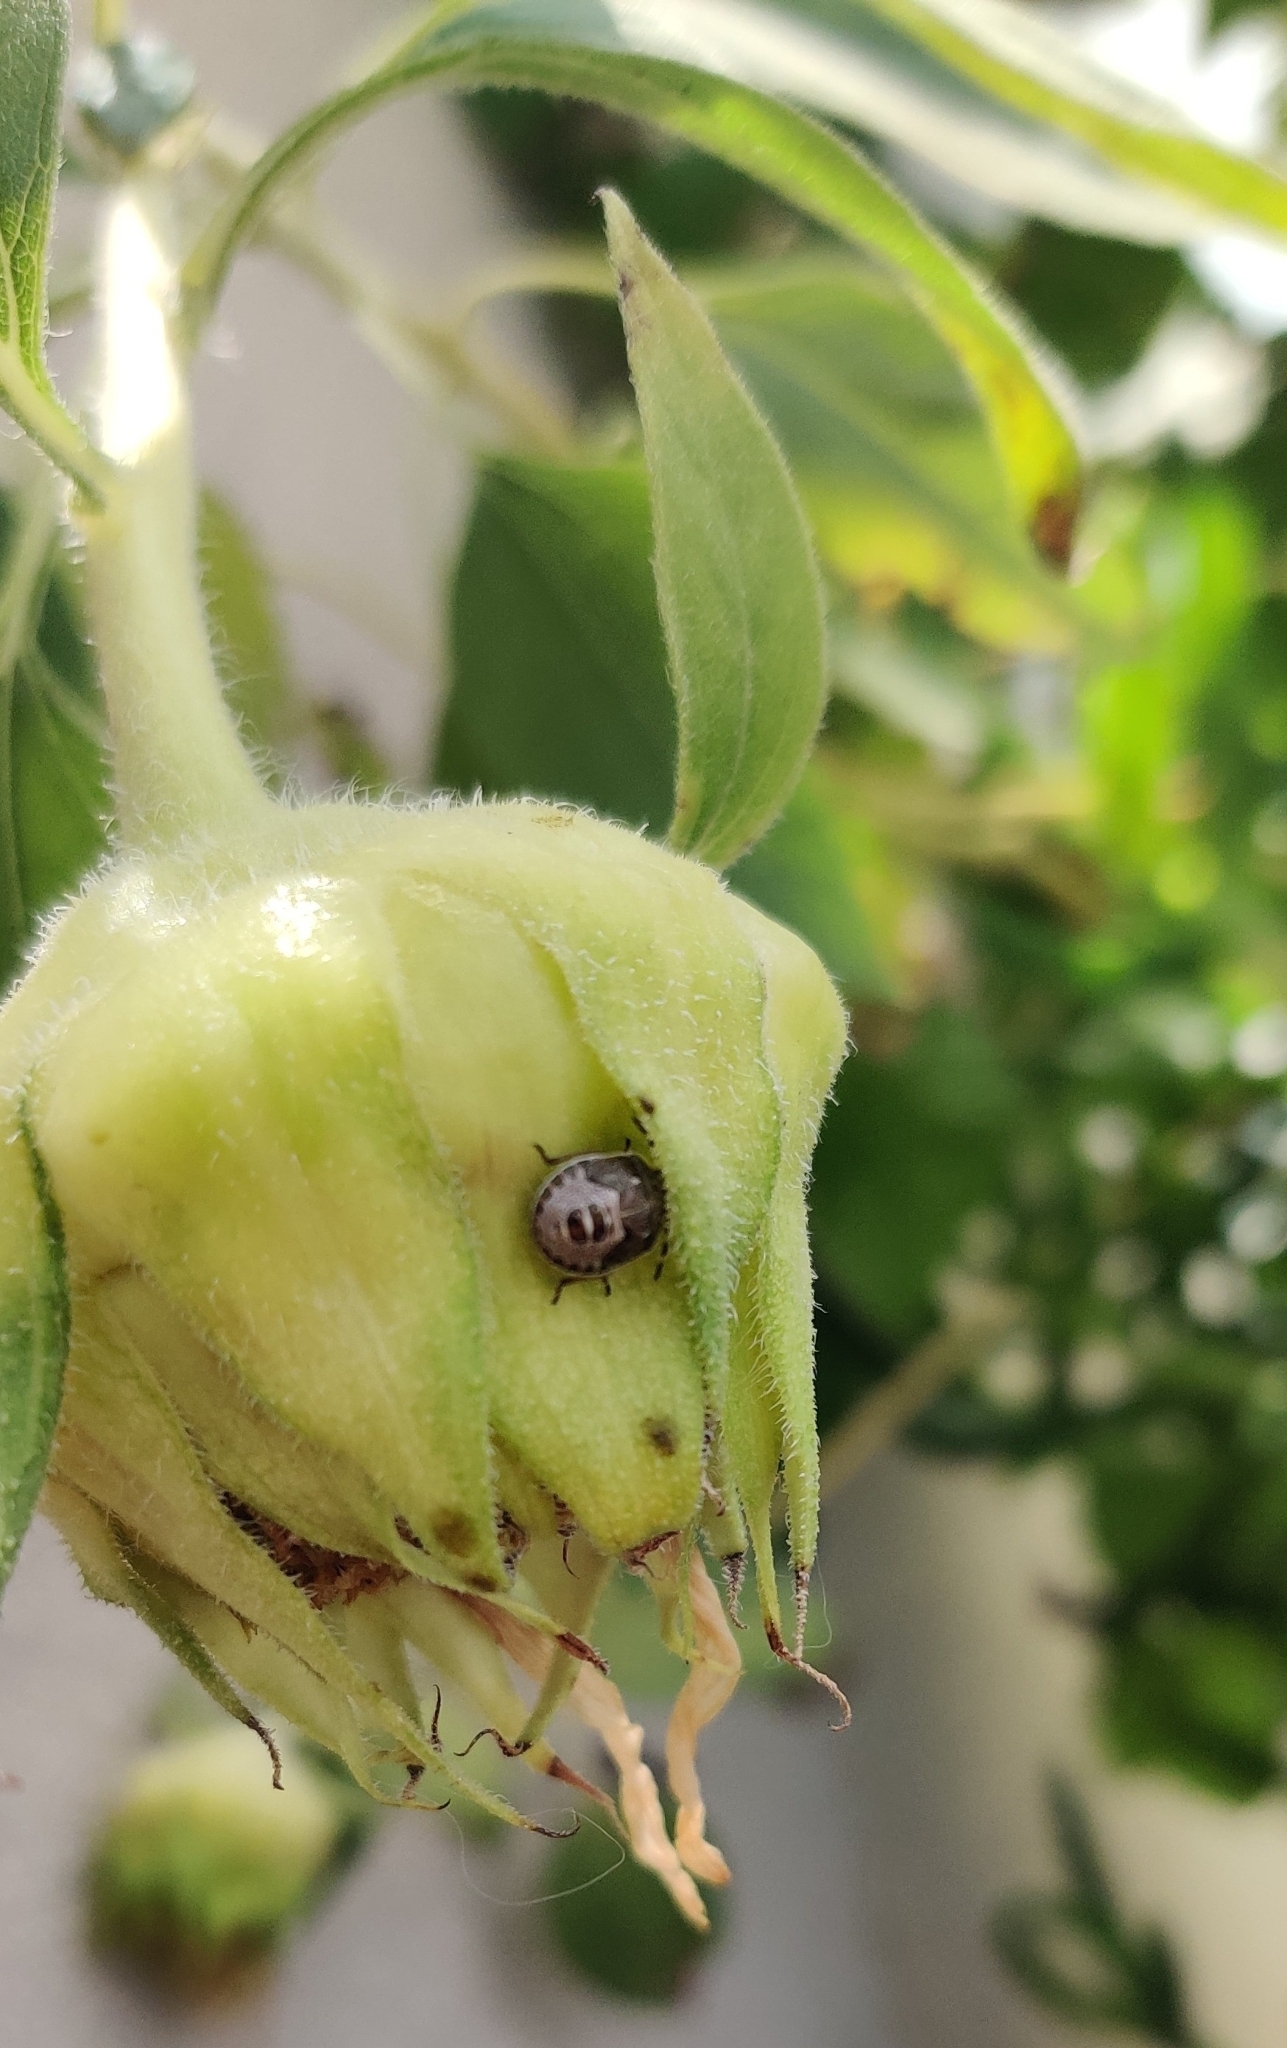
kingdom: Animalia
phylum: Arthropoda
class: Insecta
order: Hemiptera
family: Pentatomidae
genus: Holcostethus
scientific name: Holcostethus sphacelatus
